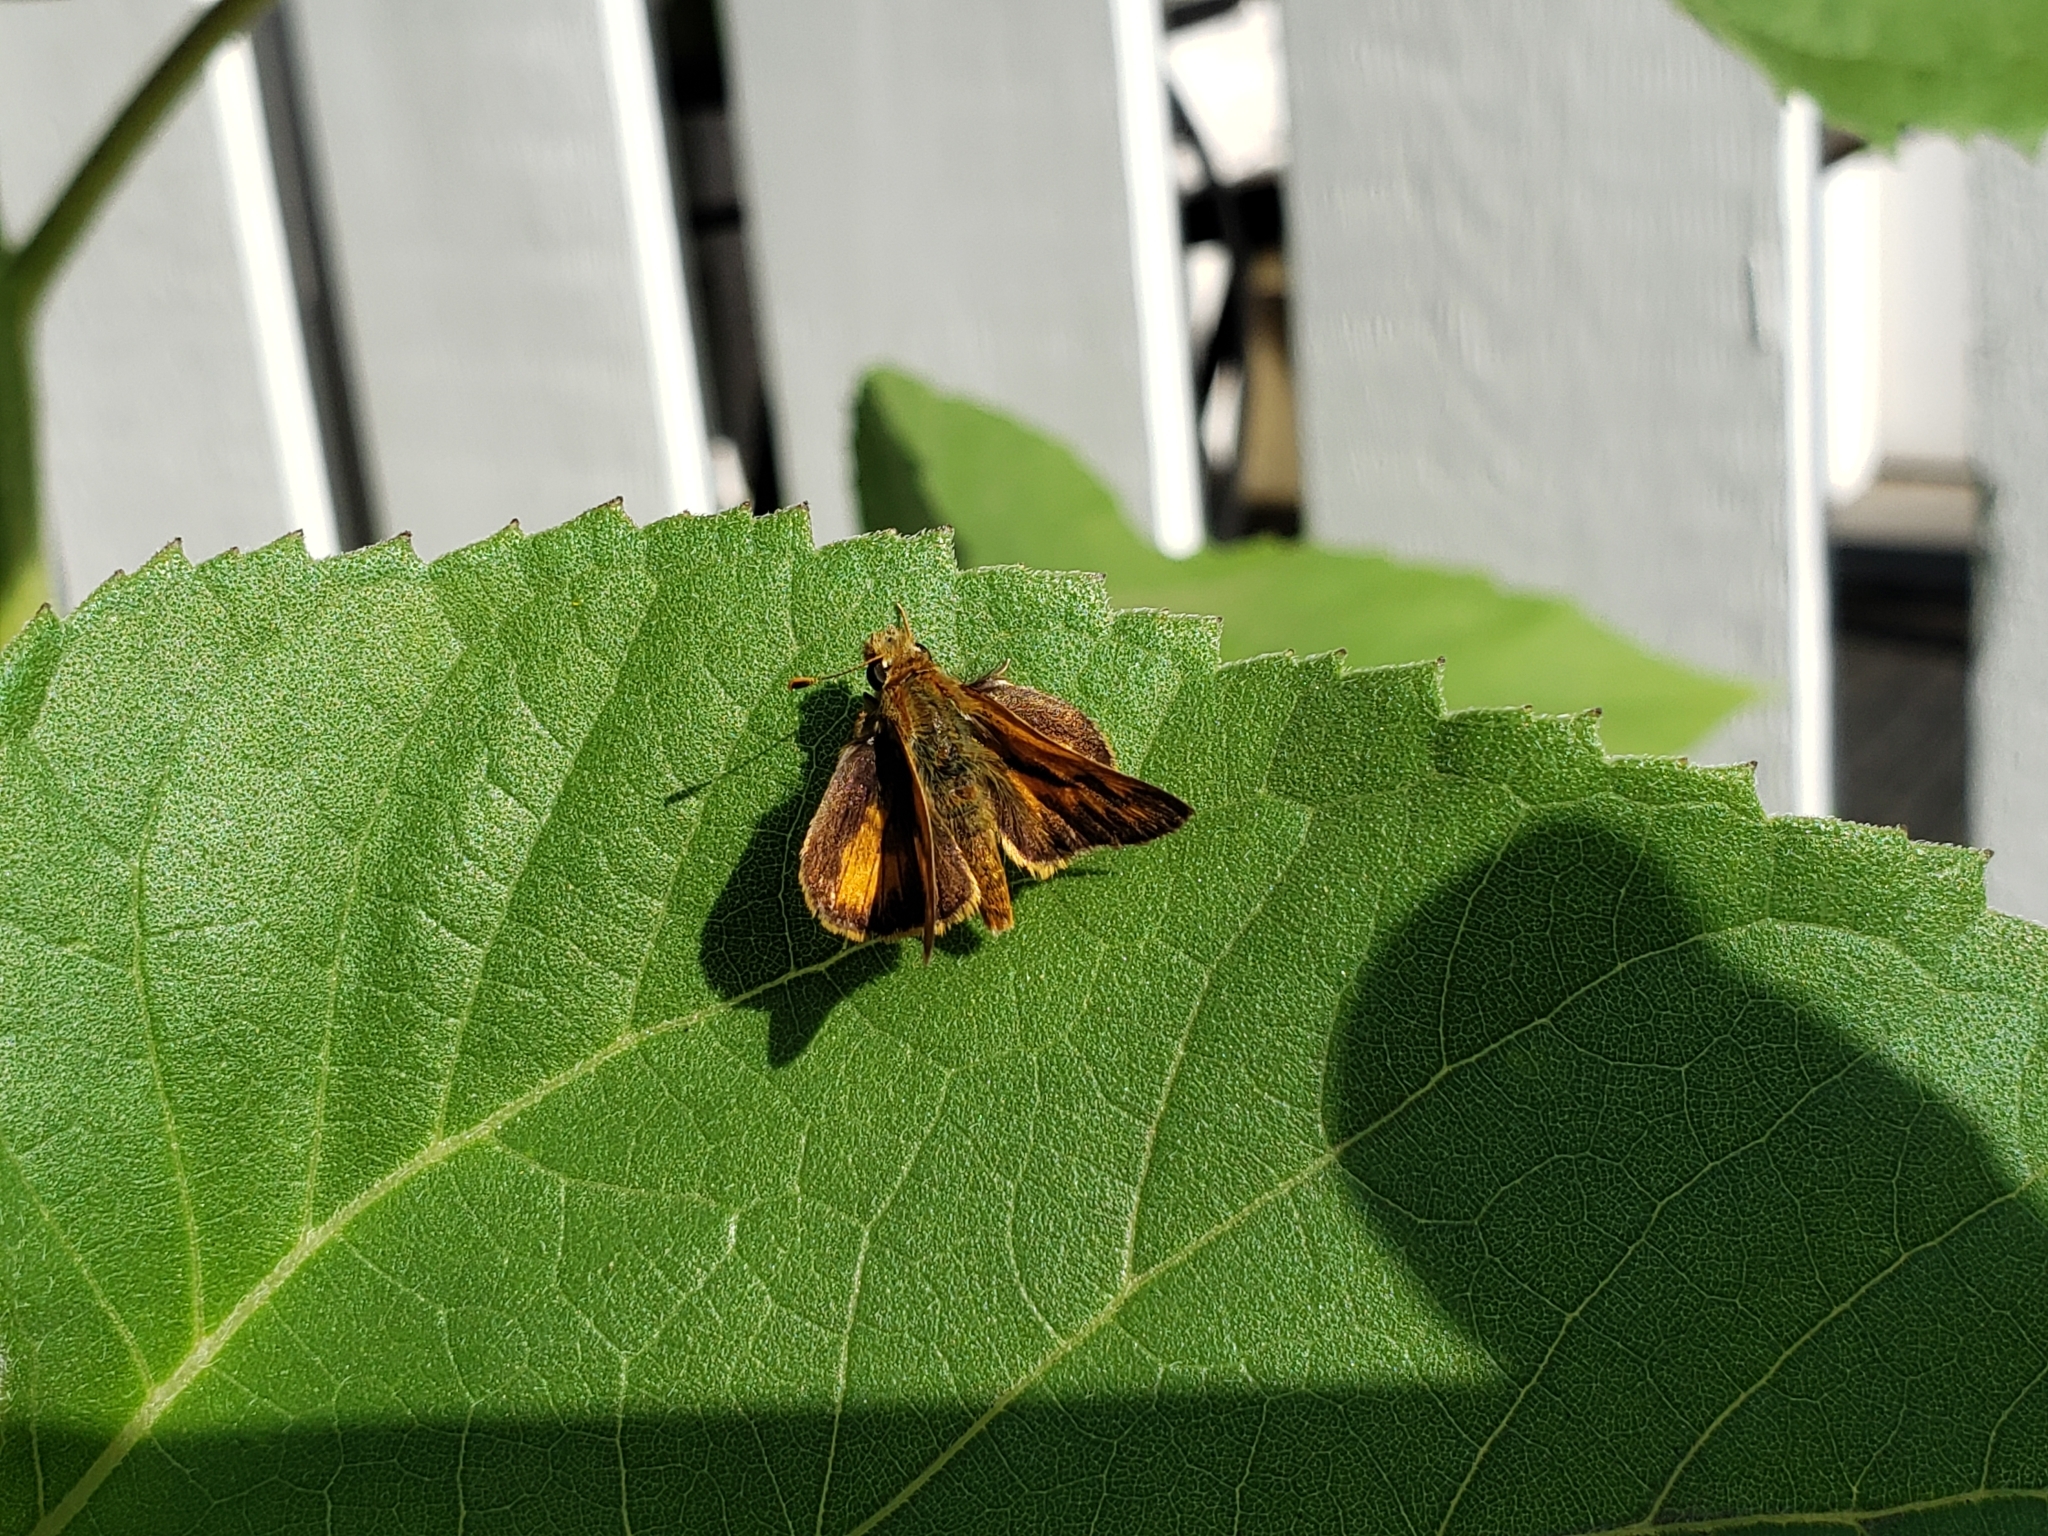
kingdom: Animalia
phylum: Arthropoda
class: Insecta
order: Lepidoptera
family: Hesperiidae
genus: Ochlodes
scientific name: Ochlodes sylvanoides
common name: Woodland skipper
